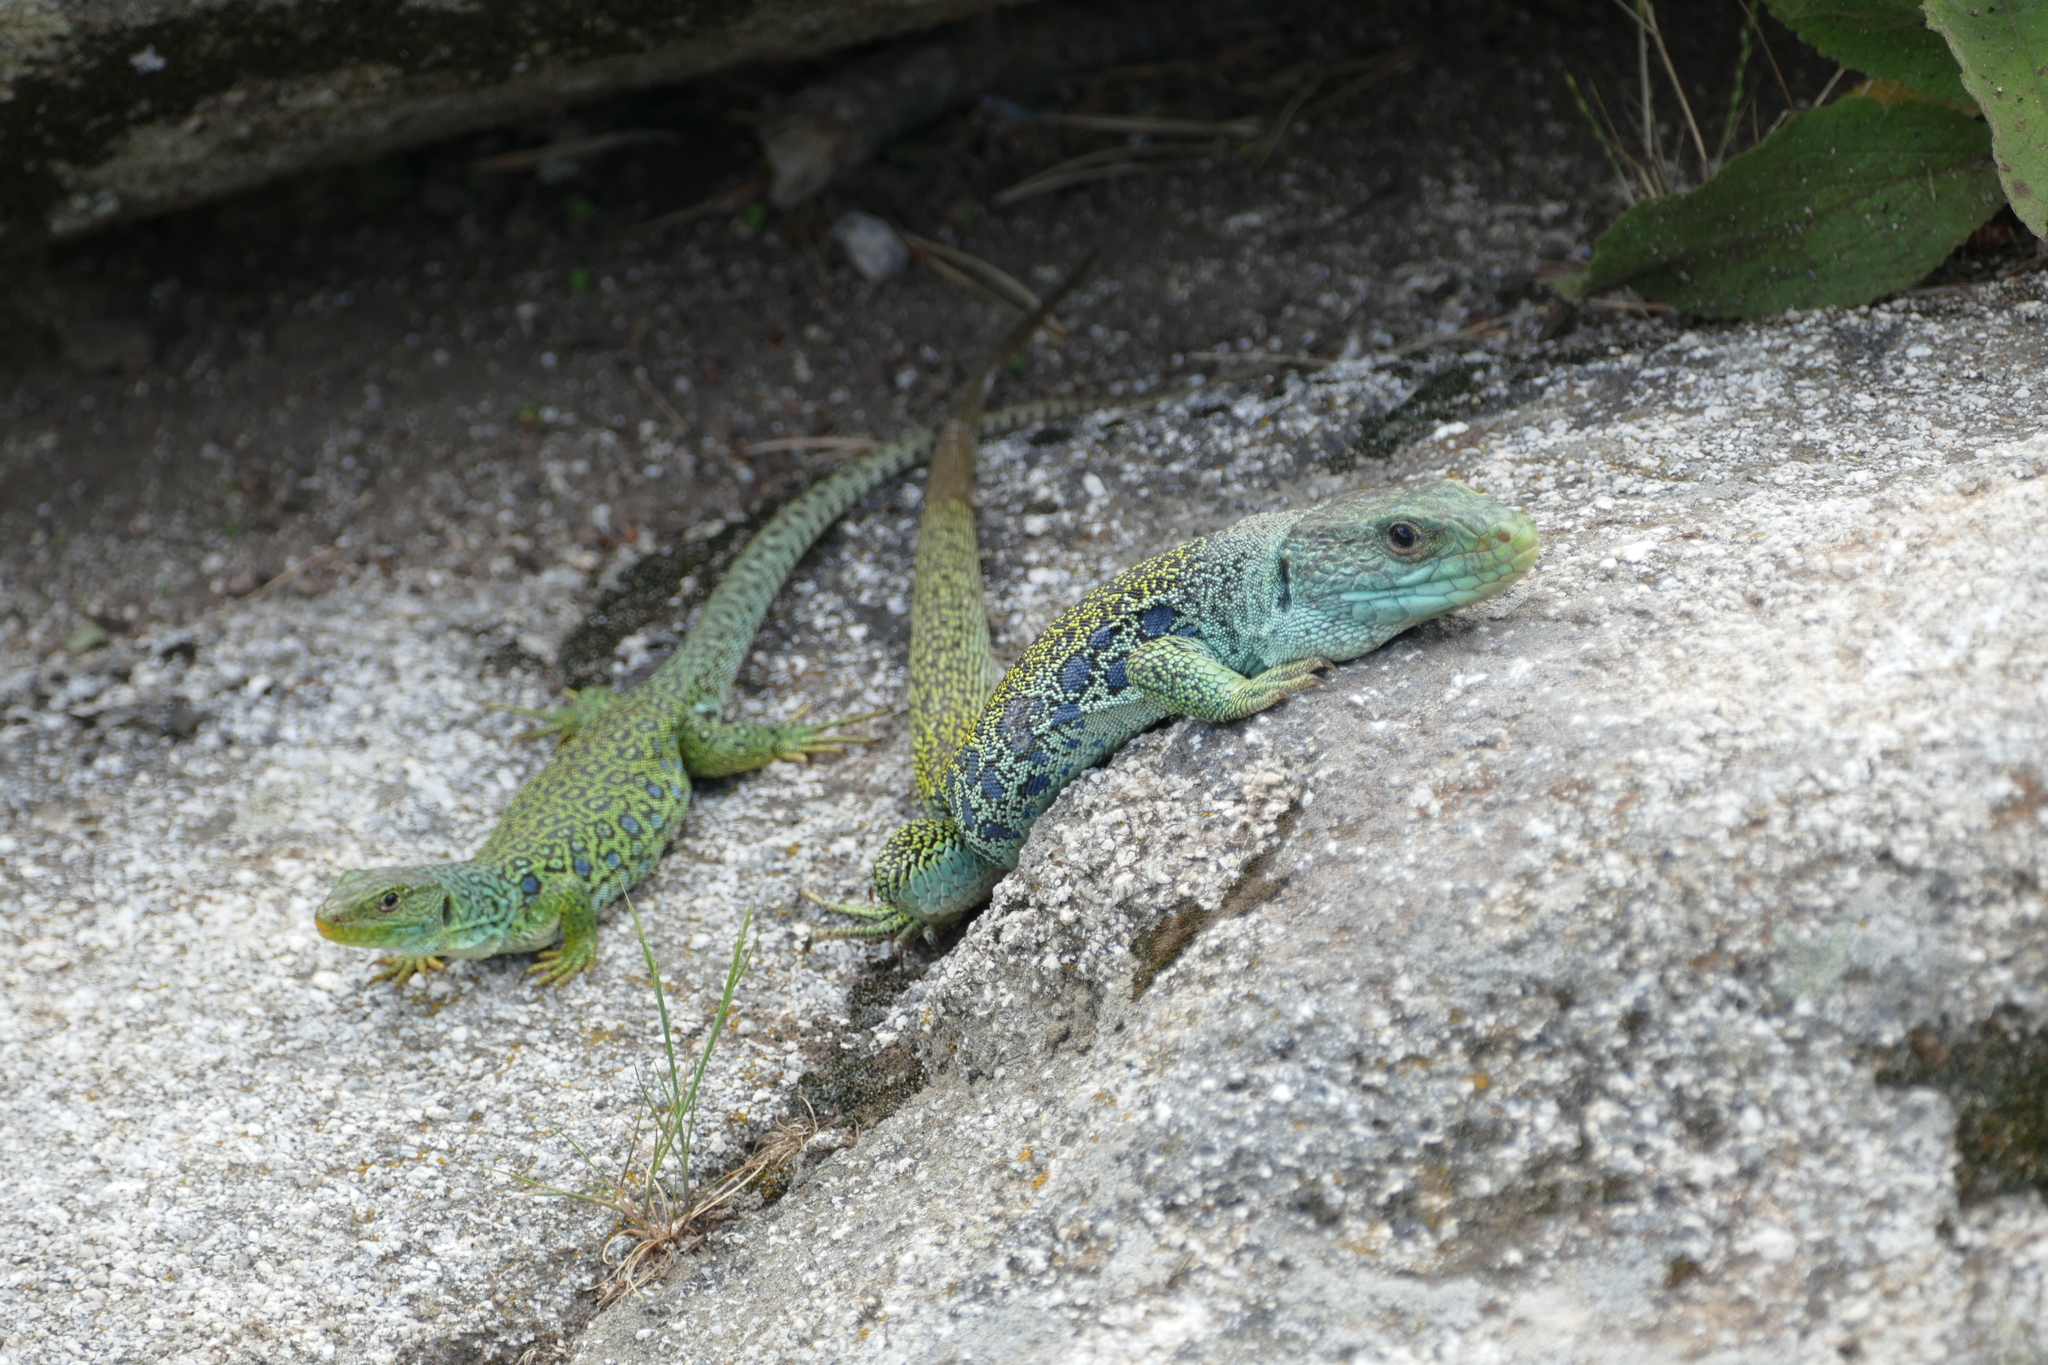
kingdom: Animalia
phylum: Chordata
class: Squamata
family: Lacertidae
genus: Timon
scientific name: Timon lepidus
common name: Ocellated lizard
